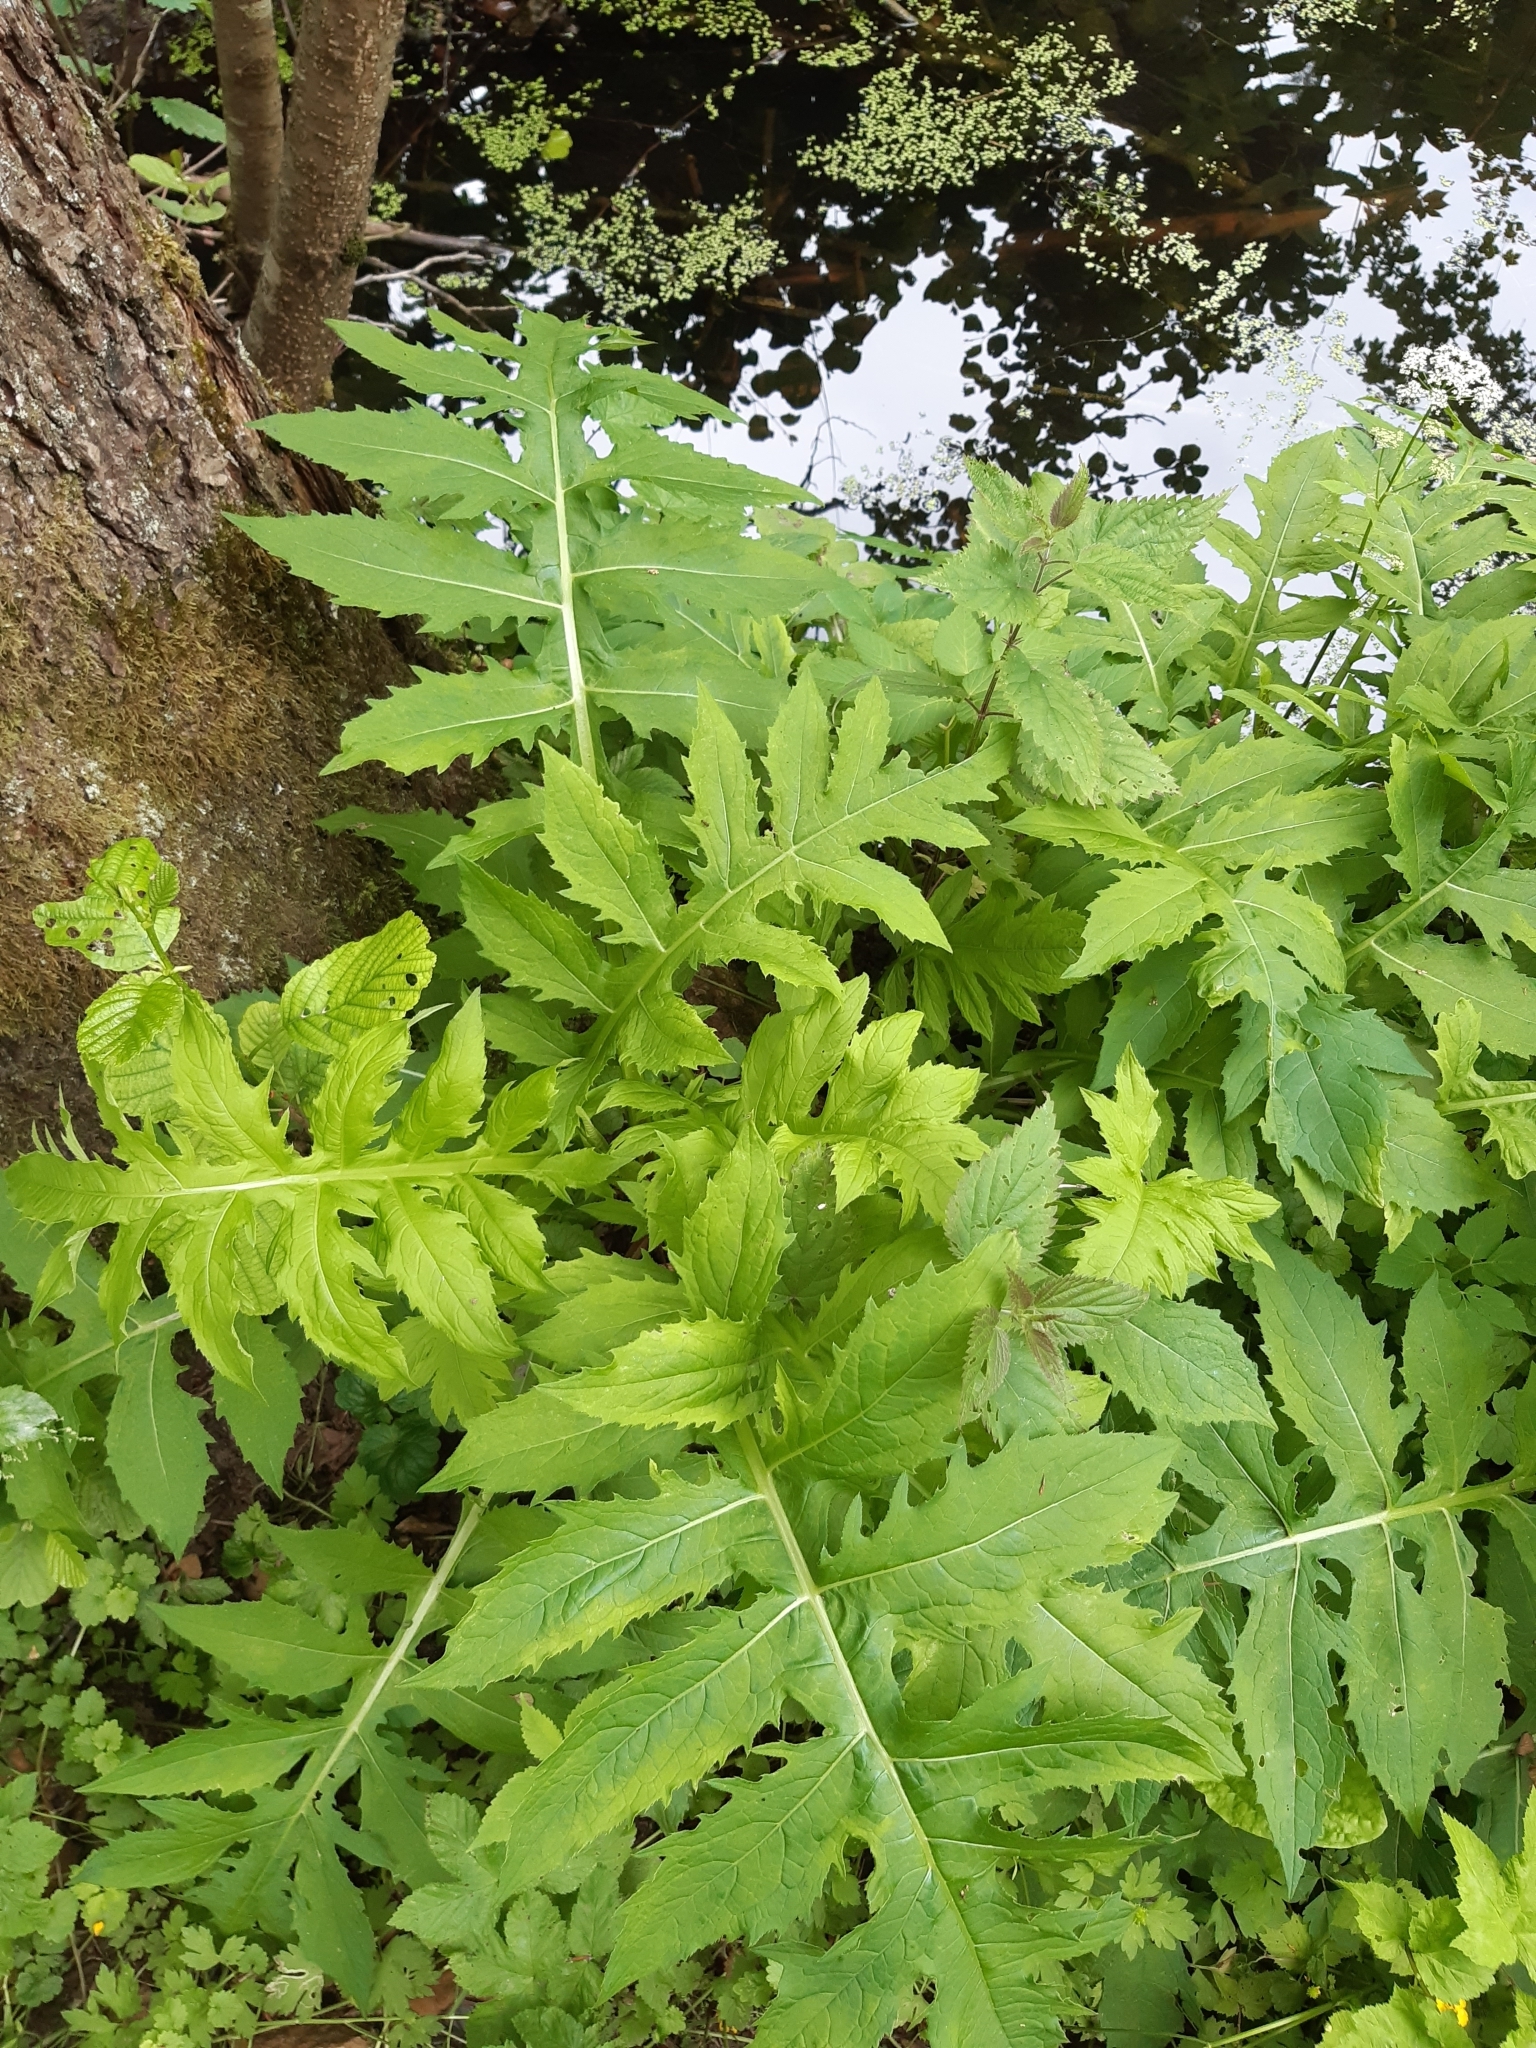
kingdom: Plantae
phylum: Tracheophyta
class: Magnoliopsida
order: Asterales
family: Asteraceae
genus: Cirsium
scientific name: Cirsium oleraceum
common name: Cabbage thistle
